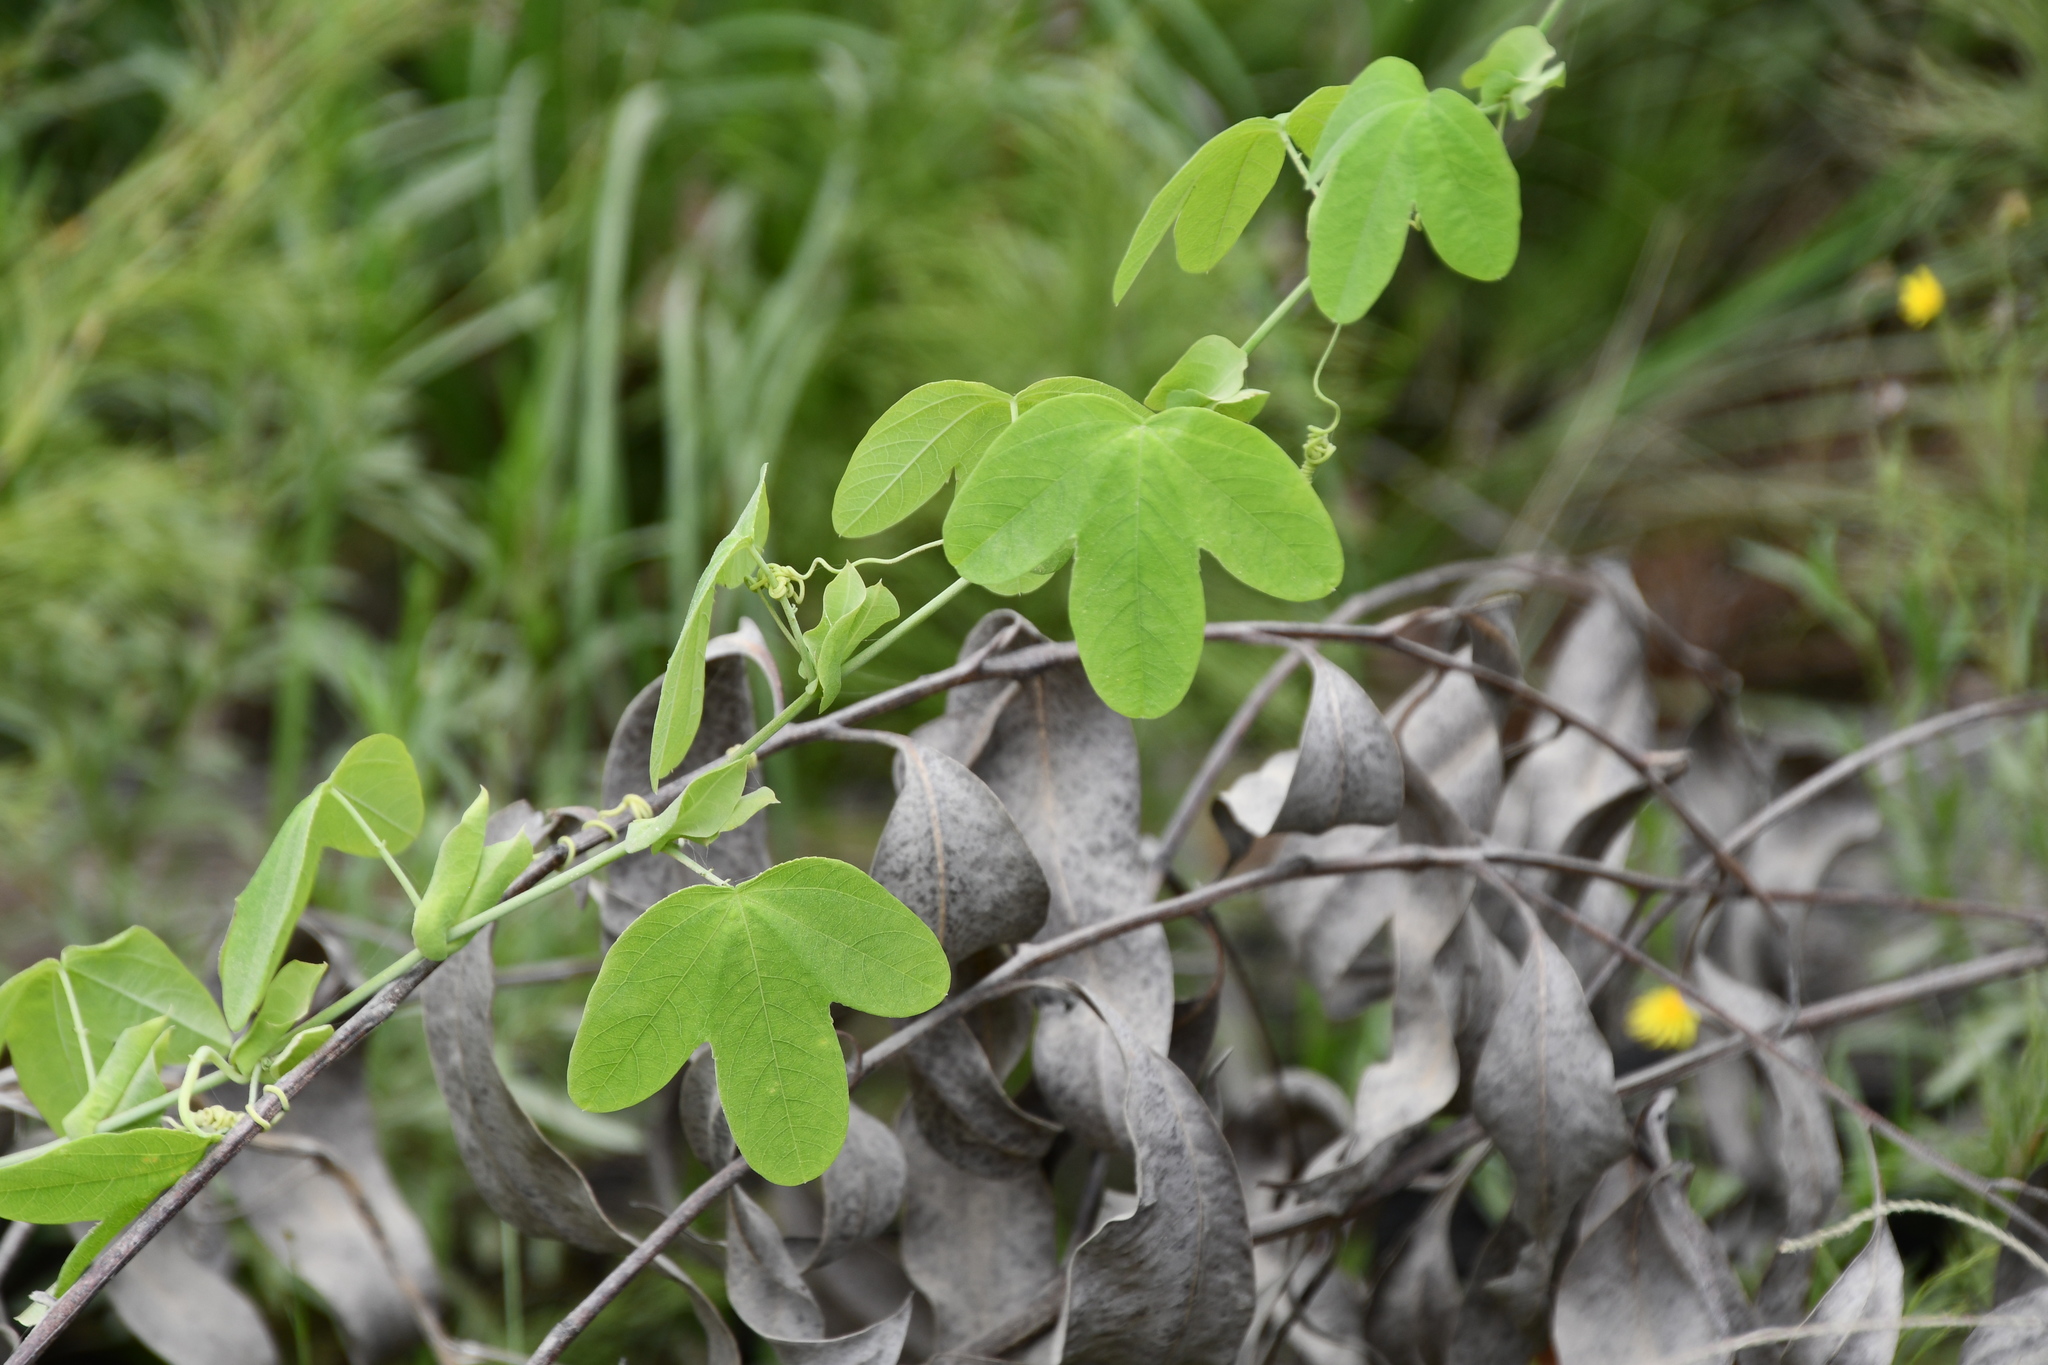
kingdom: Plantae
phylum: Tracheophyta
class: Magnoliopsida
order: Malpighiales
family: Passifloraceae
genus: Passiflora
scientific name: Passiflora subpeltata
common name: White passionflower
